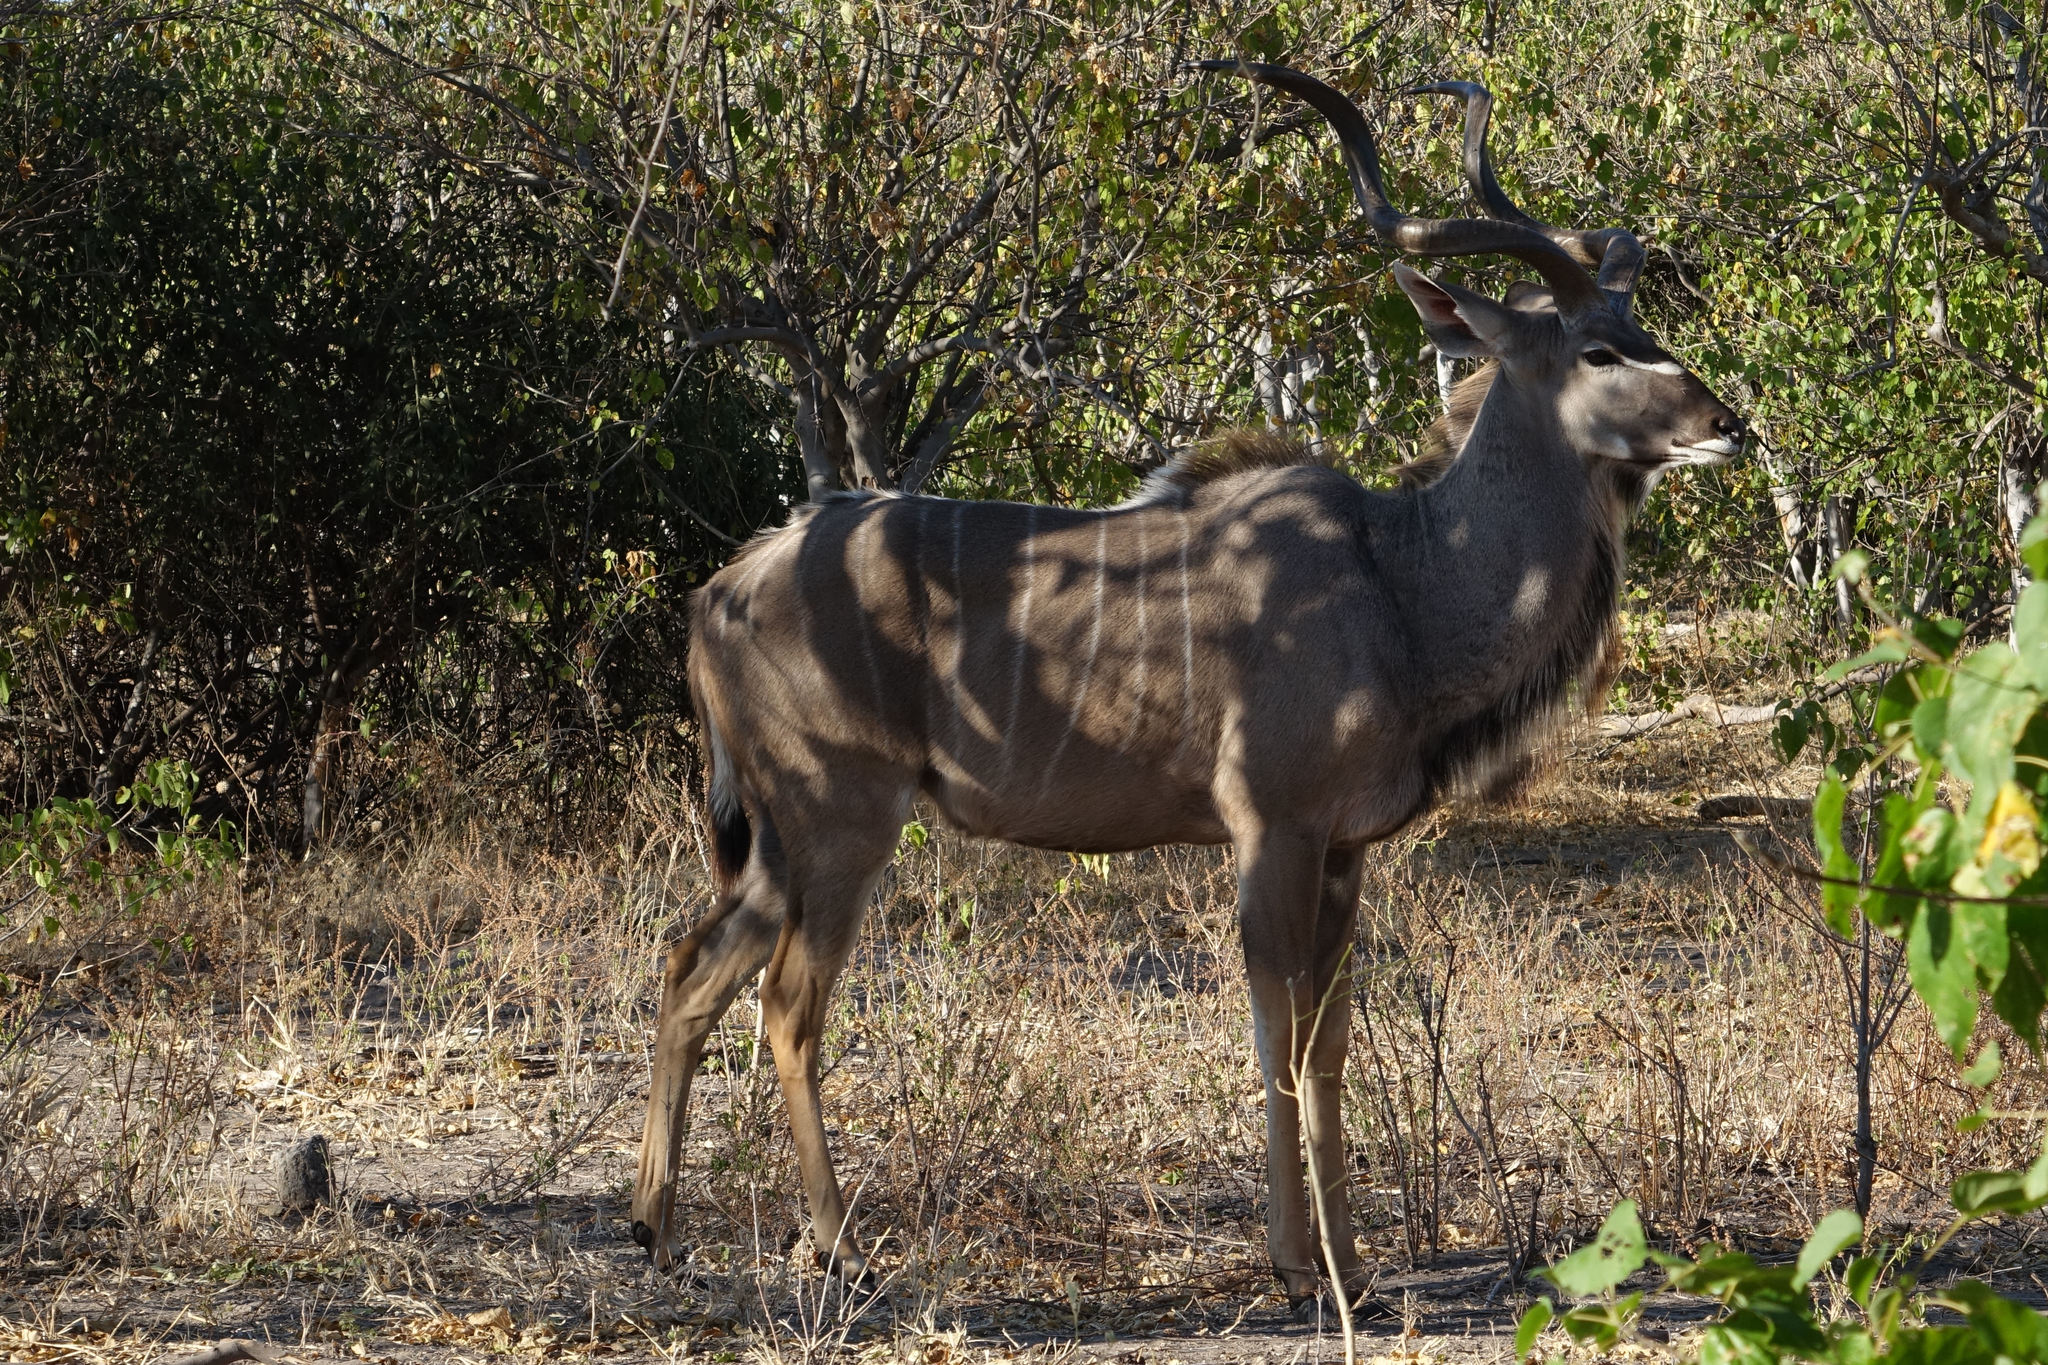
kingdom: Animalia
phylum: Chordata
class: Mammalia
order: Artiodactyla
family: Bovidae
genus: Tragelaphus
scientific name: Tragelaphus strepsiceros
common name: Greater kudu
